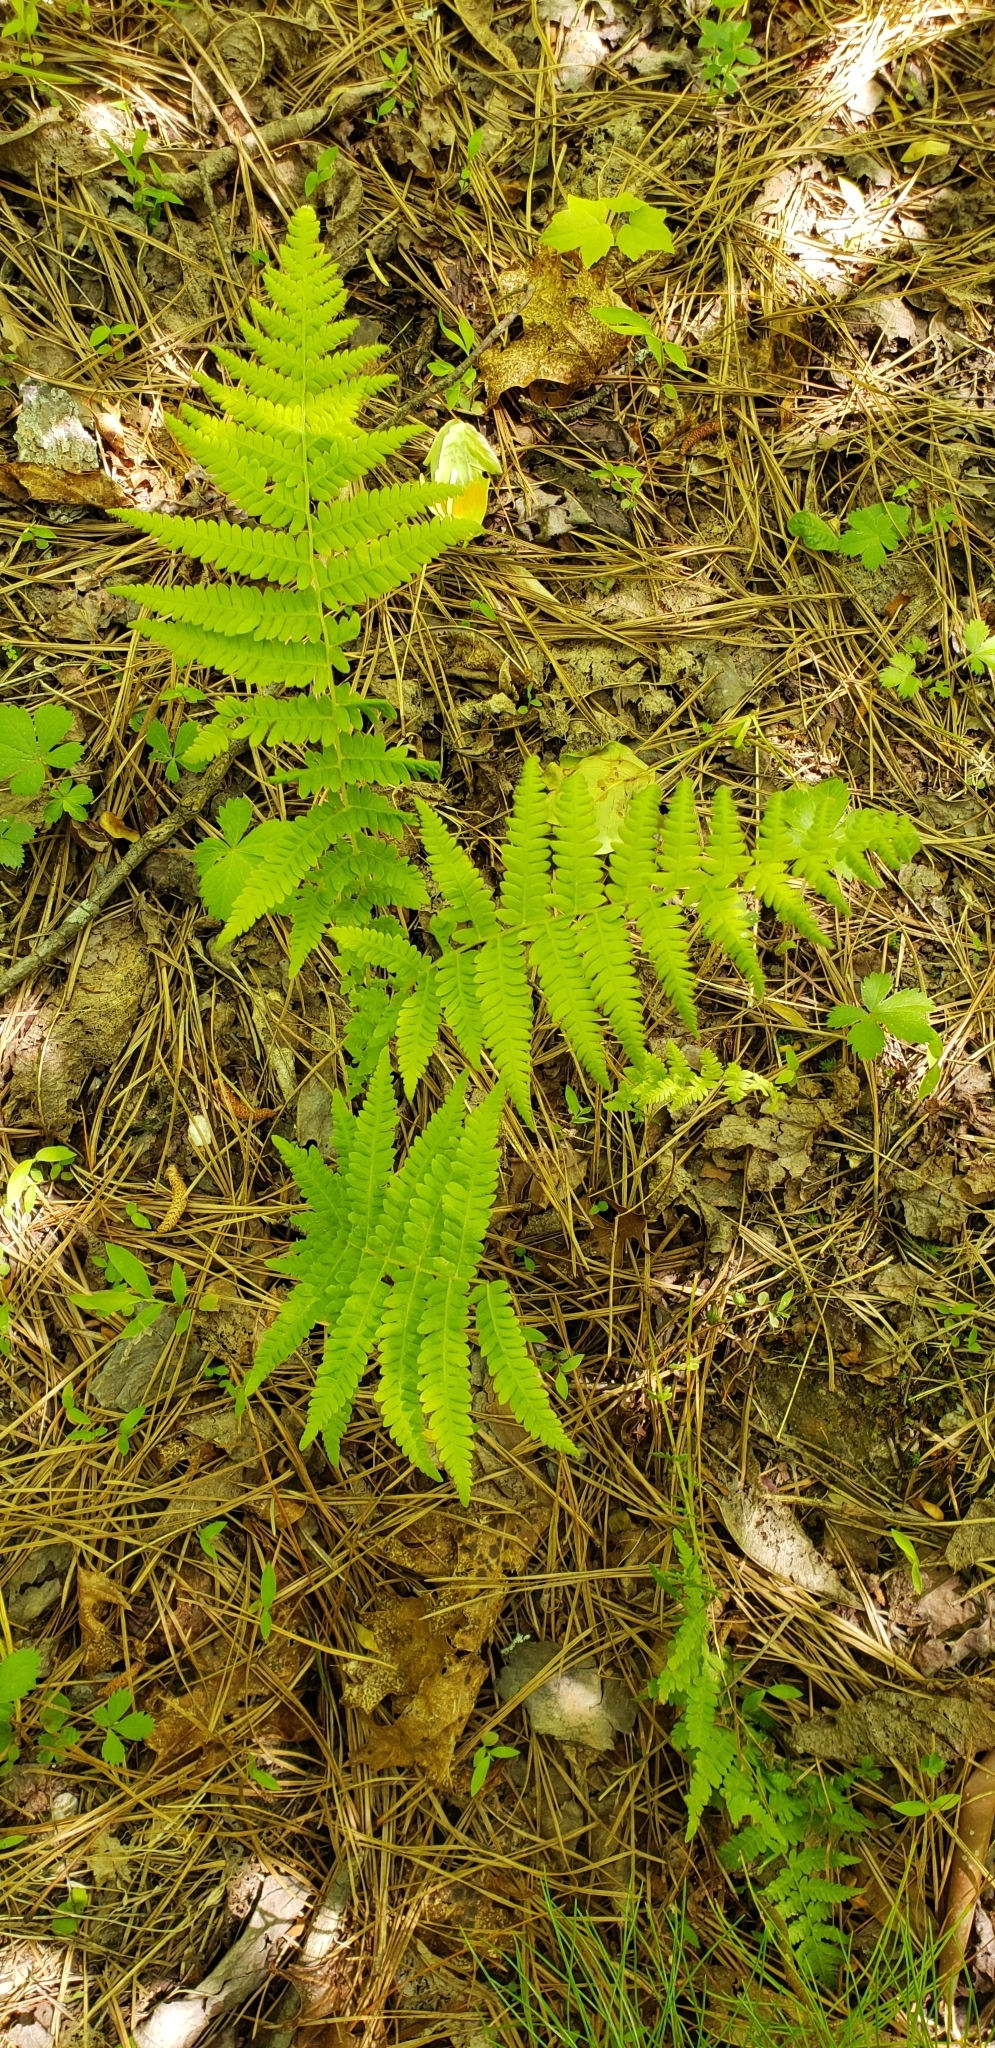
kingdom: Plantae
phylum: Tracheophyta
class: Polypodiopsida
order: Polypodiales
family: Thelypteridaceae
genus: Amauropelta
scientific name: Amauropelta noveboracensis
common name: New york fern
